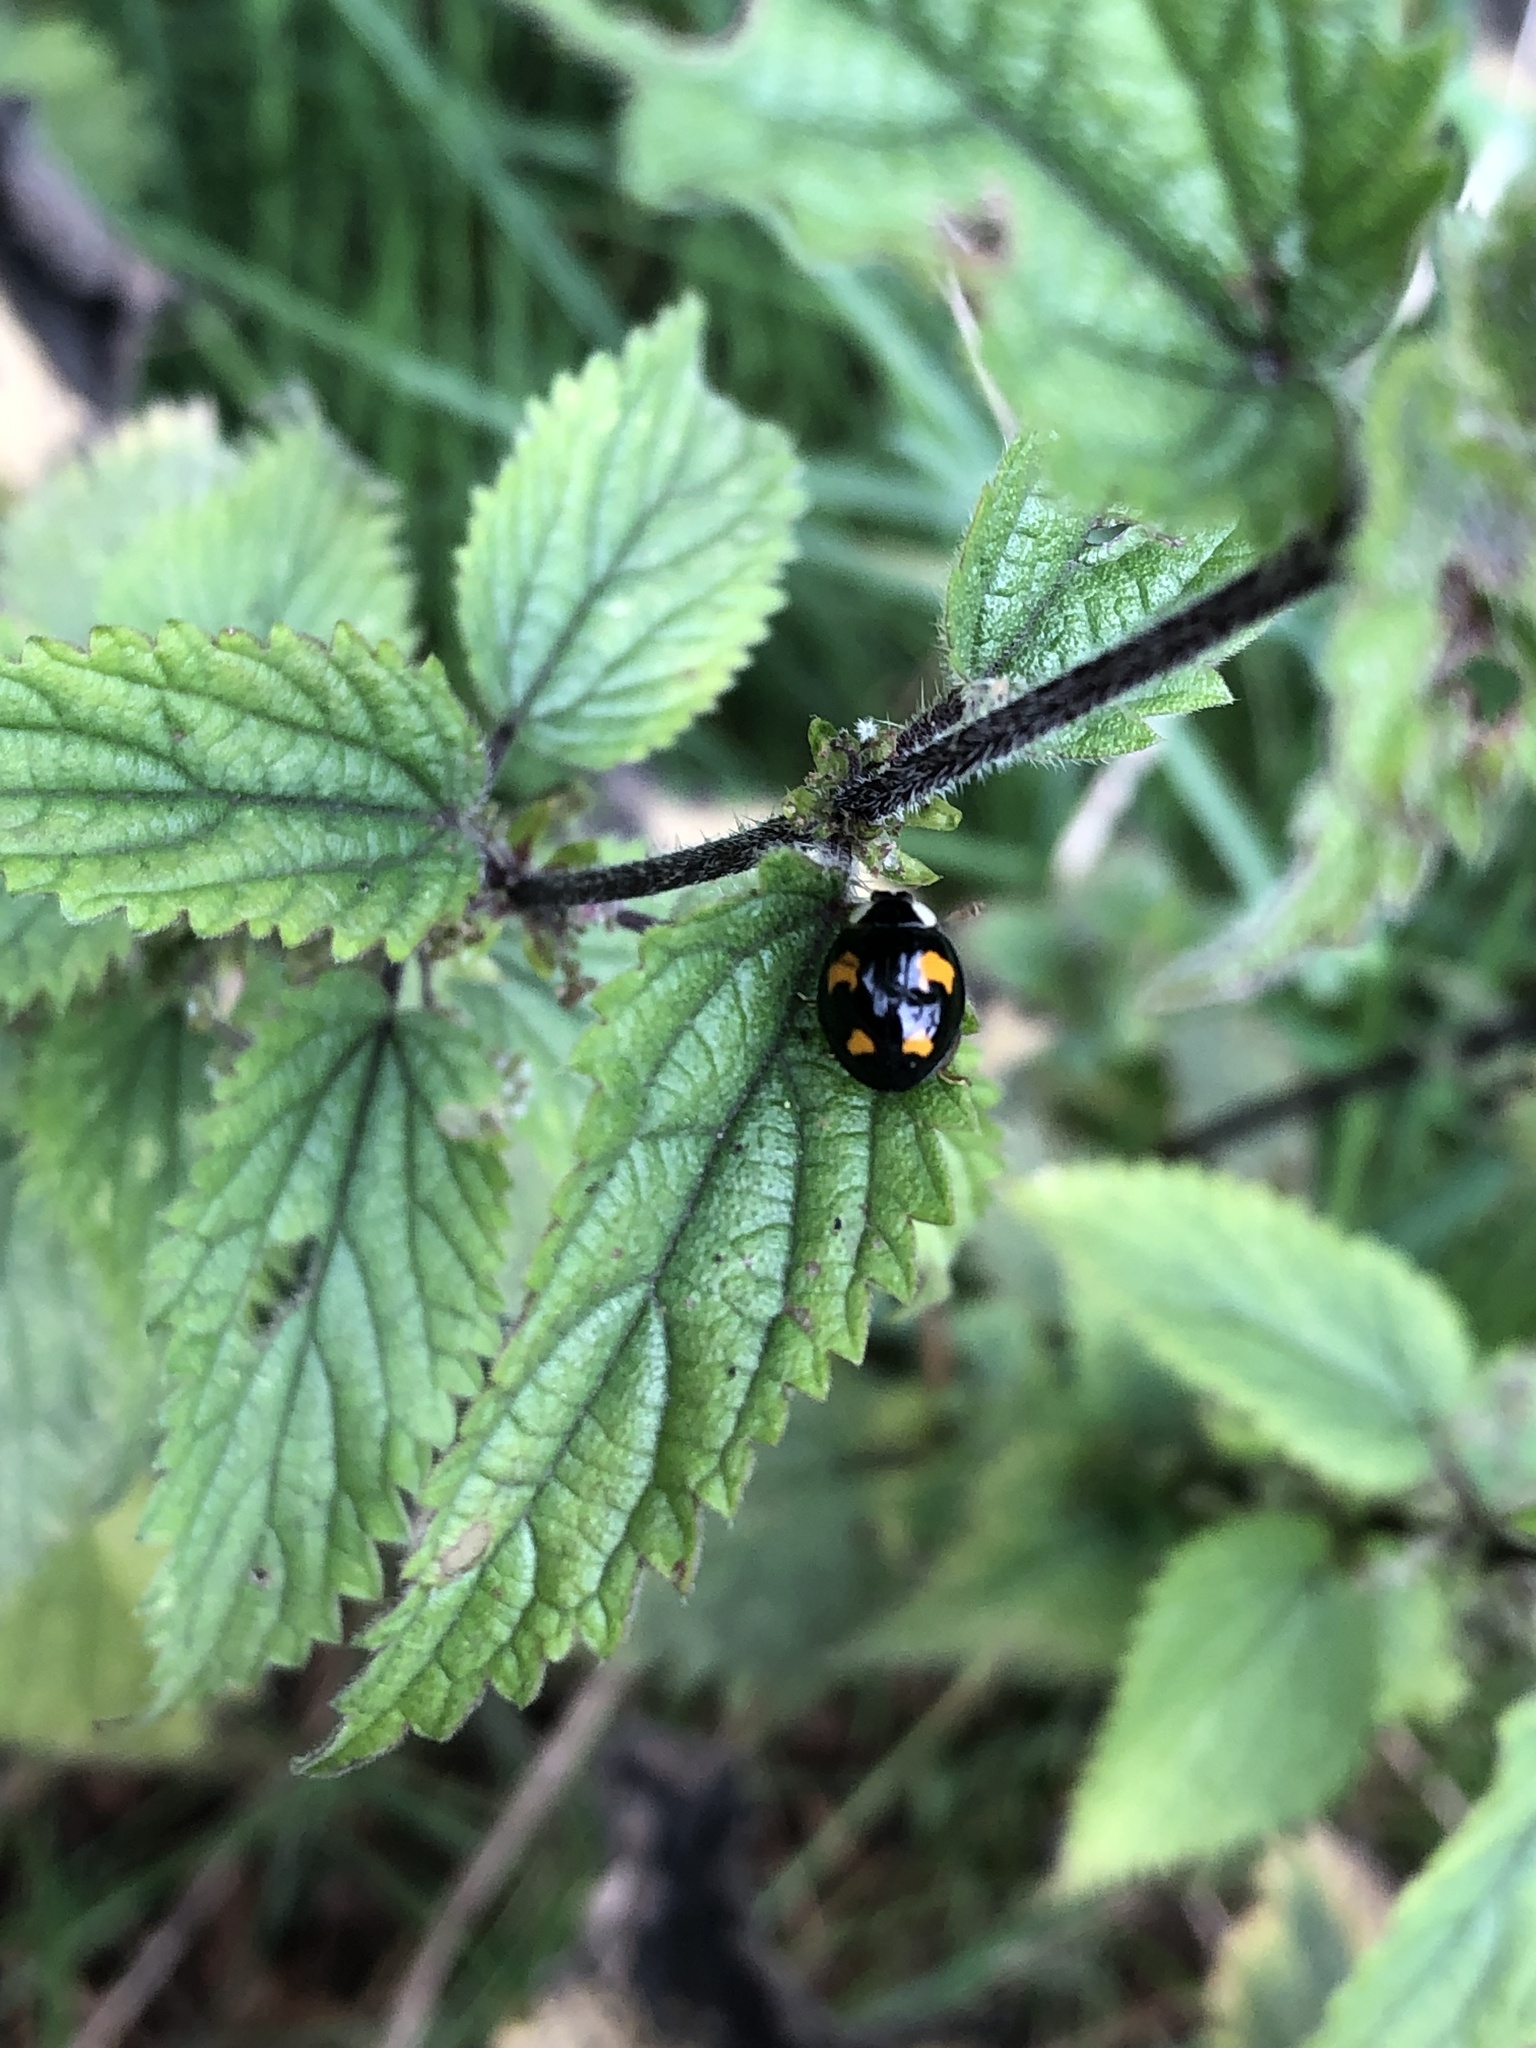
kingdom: Animalia
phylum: Arthropoda
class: Insecta
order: Coleoptera
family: Coccinellidae
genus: Harmonia
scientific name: Harmonia axyridis
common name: Harlequin ladybird
